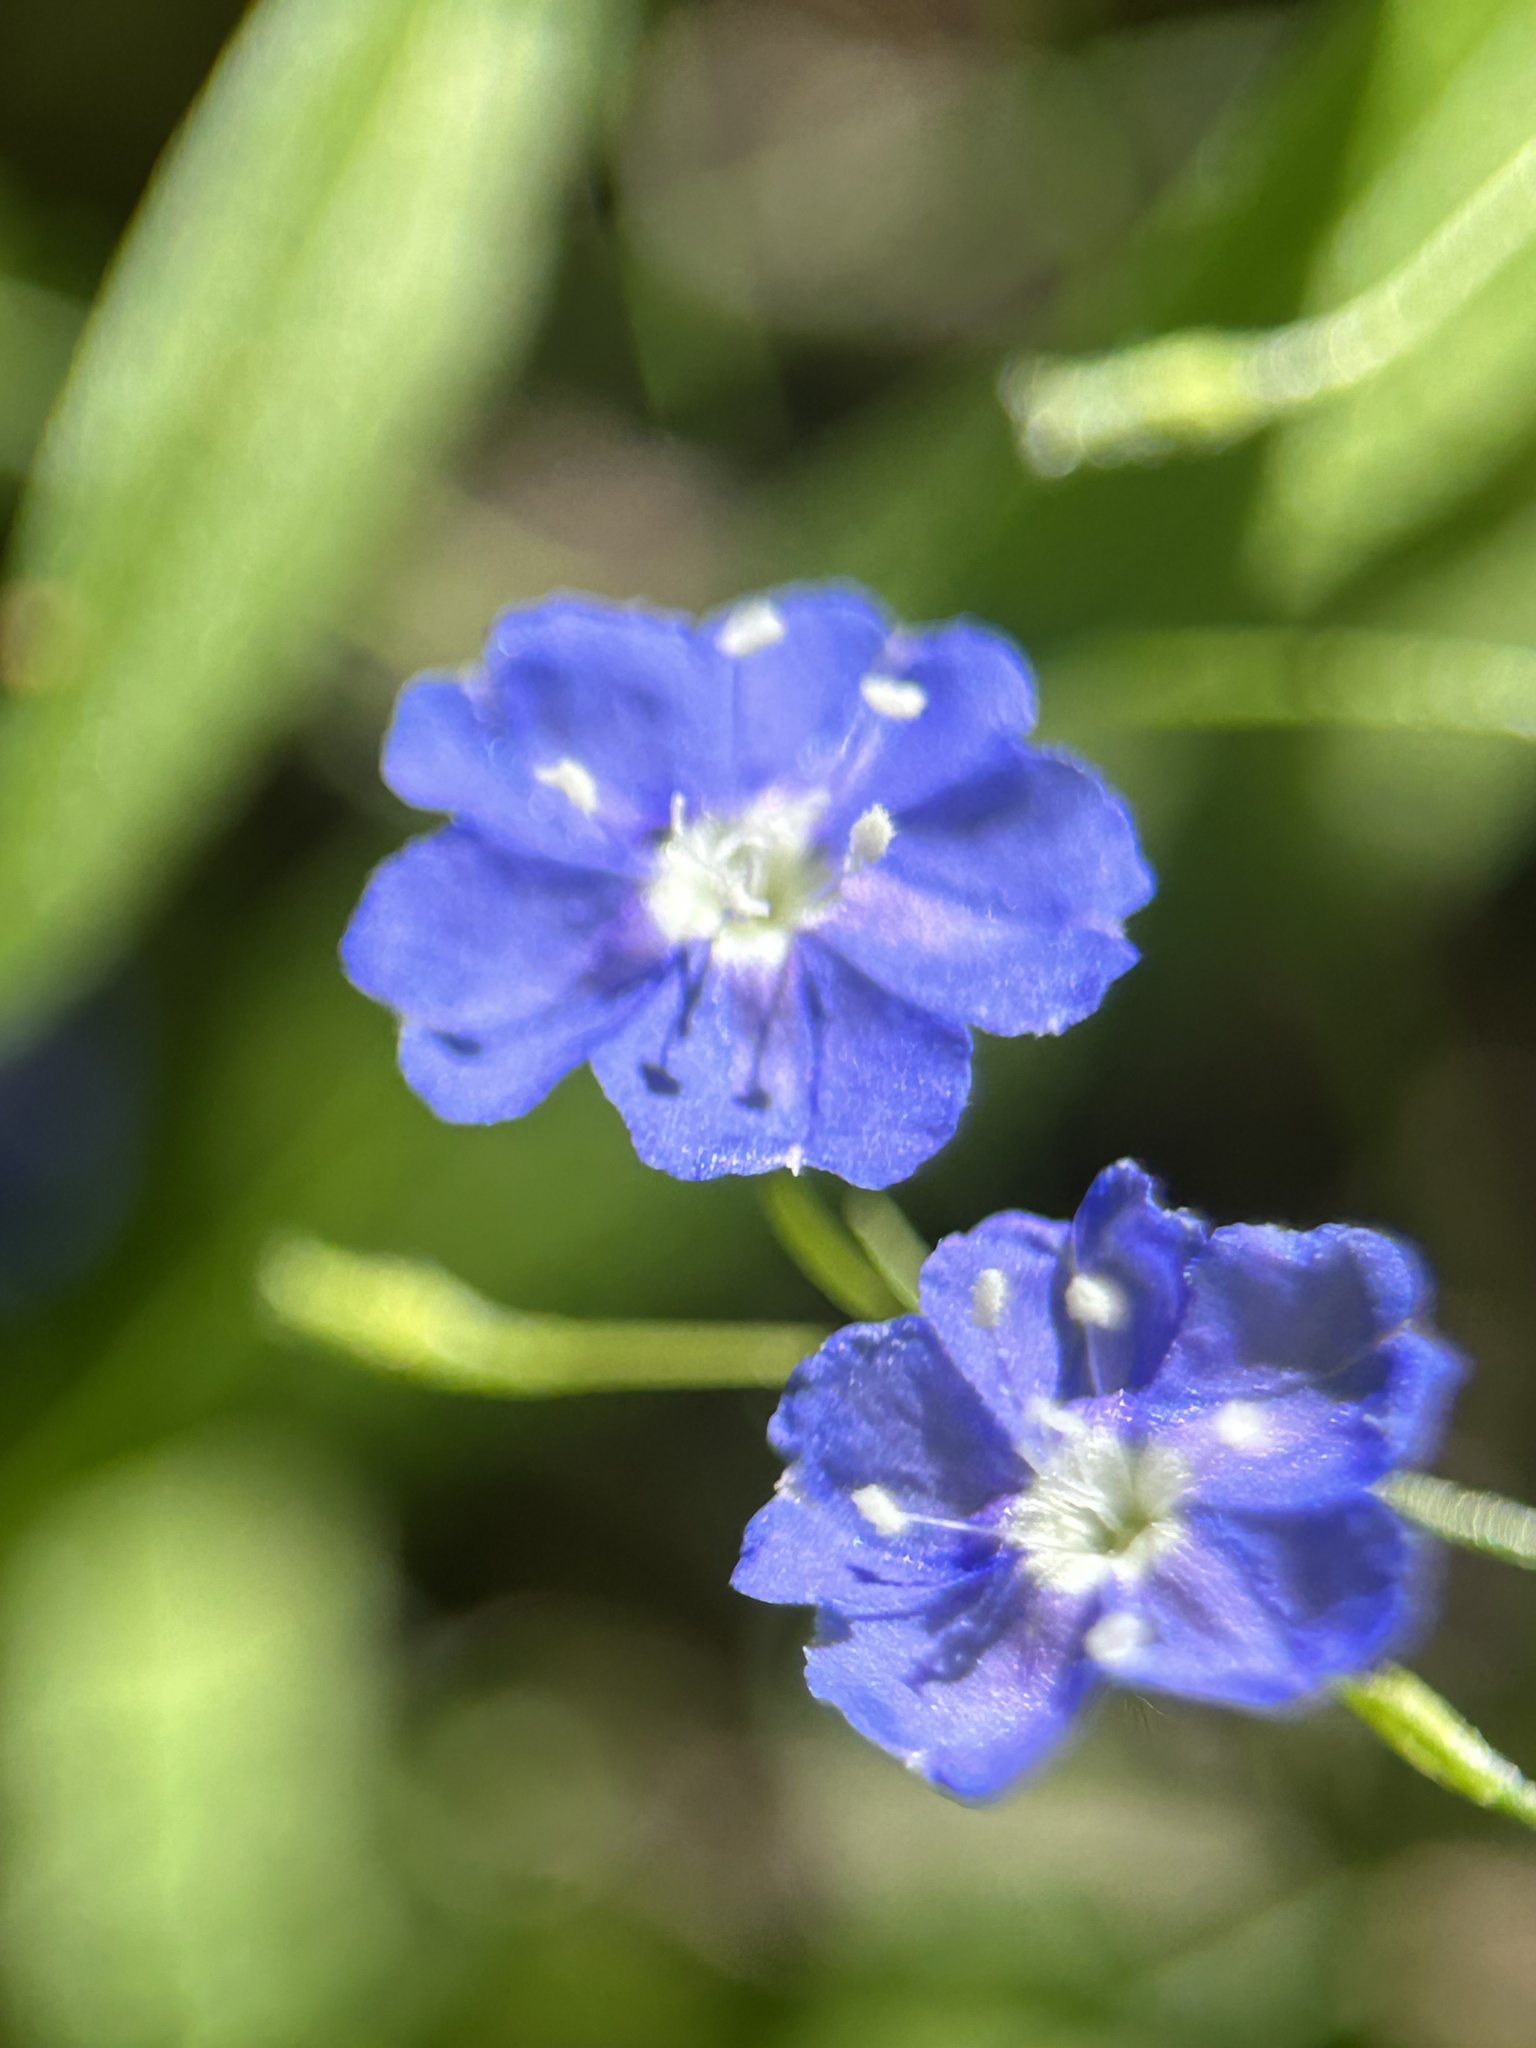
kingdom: Plantae
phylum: Tracheophyta
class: Magnoliopsida
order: Solanales
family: Convolvulaceae
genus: Evolvulus
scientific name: Evolvulus alsinoides
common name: Slender dwarf morning-glory
